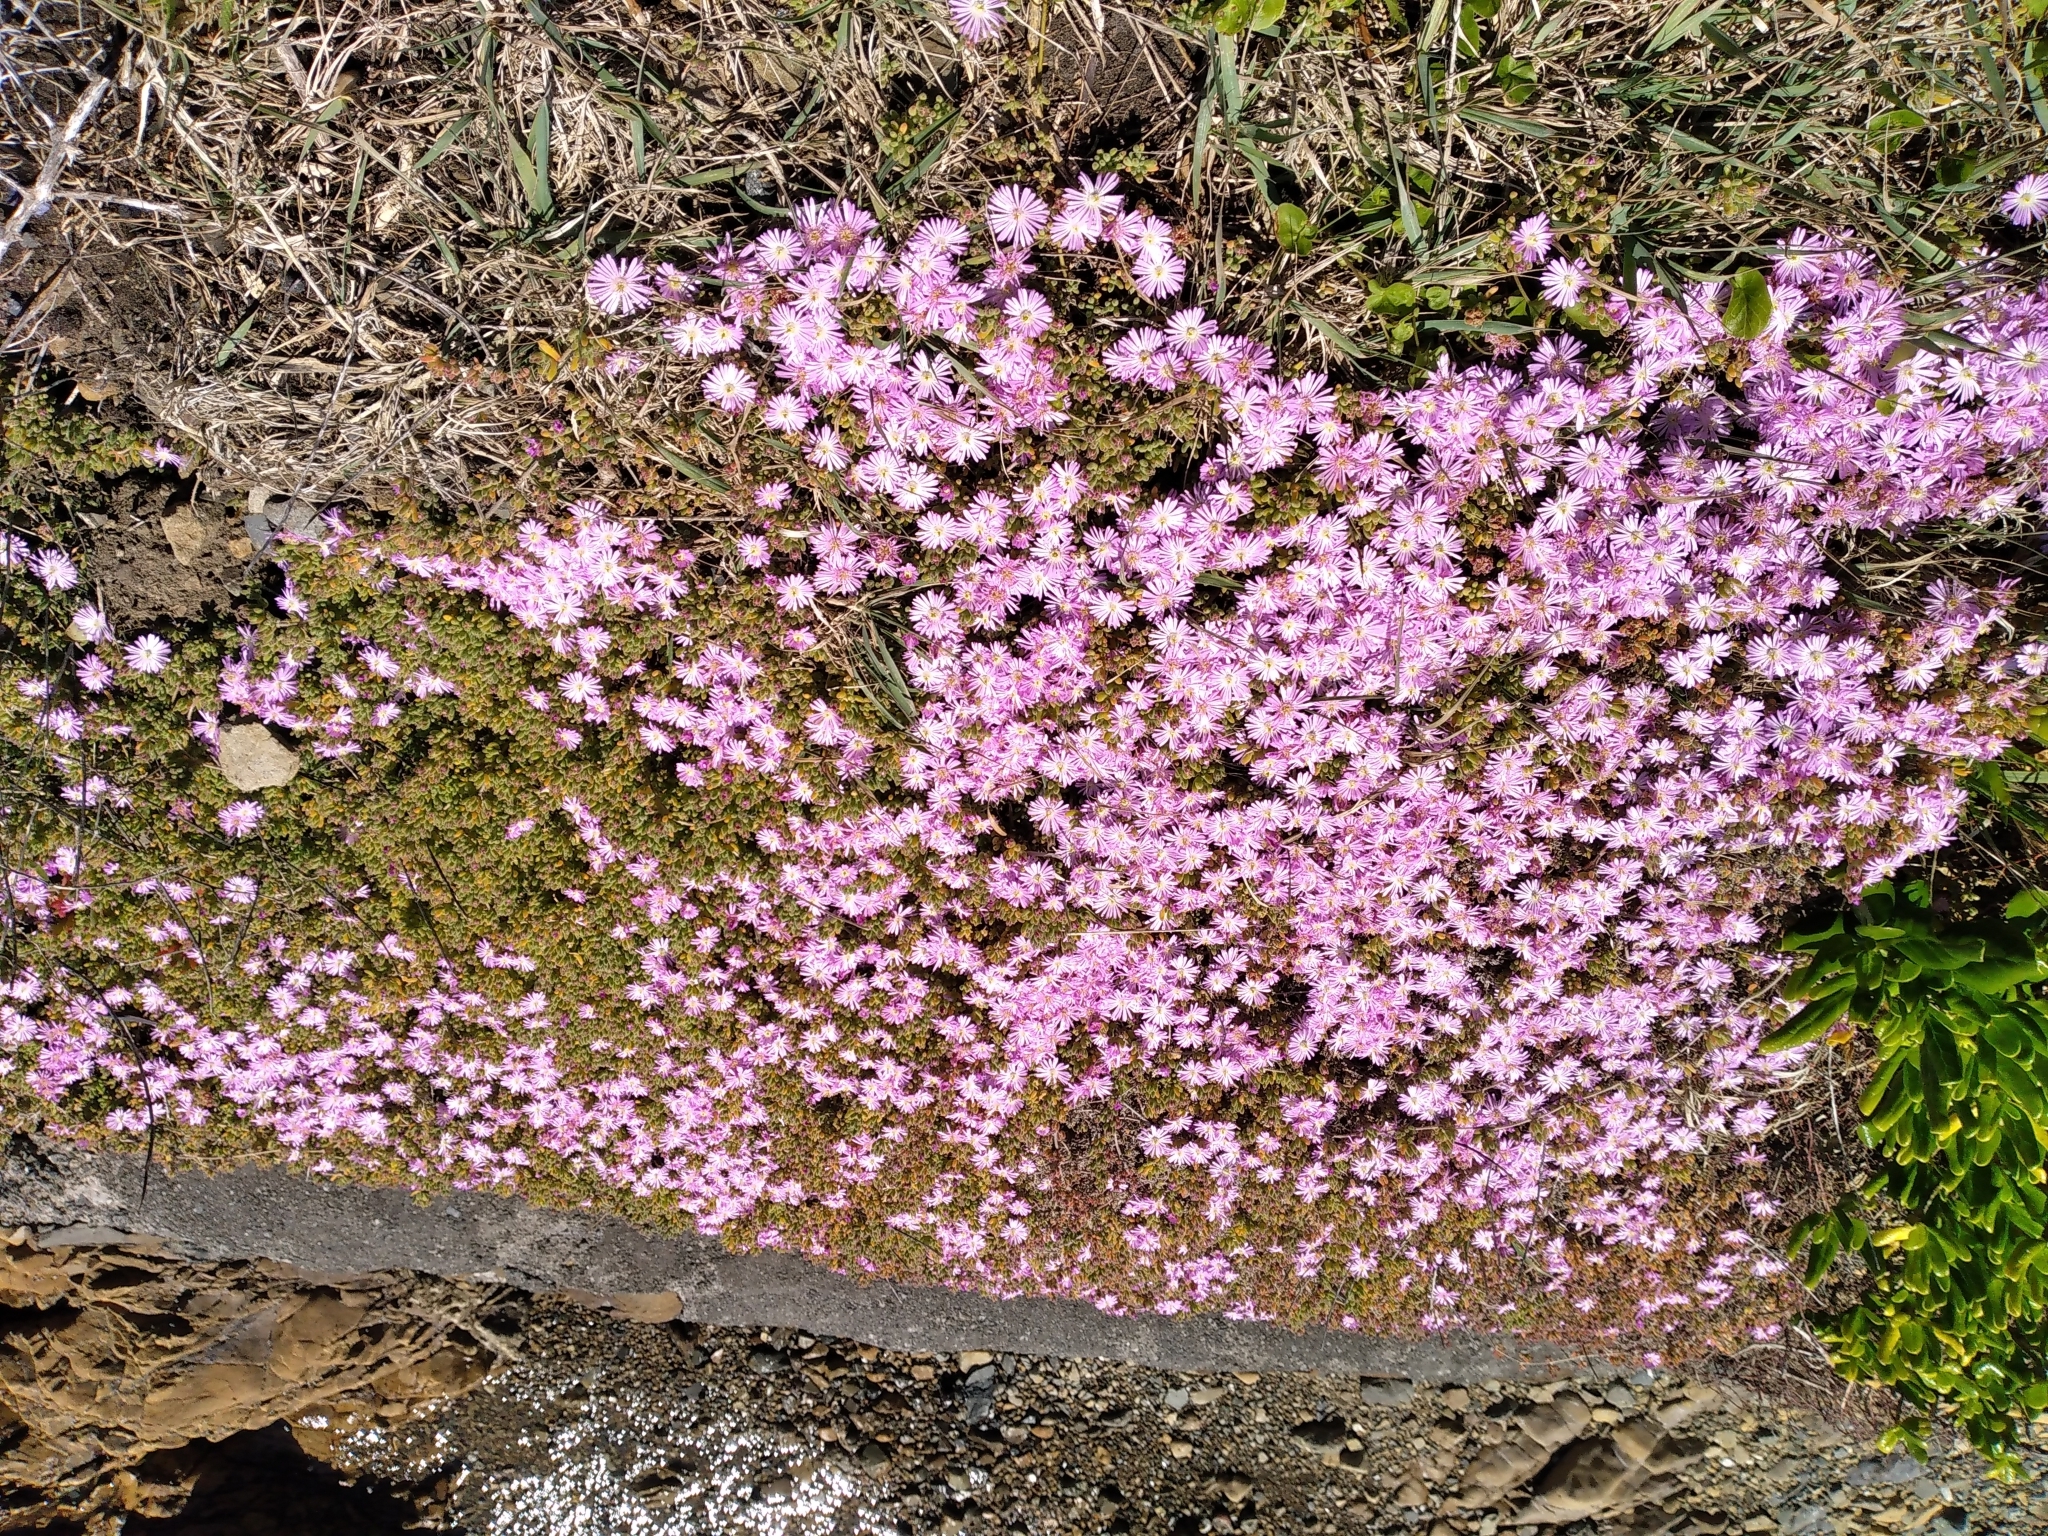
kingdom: Plantae
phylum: Tracheophyta
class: Magnoliopsida
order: Caryophyllales
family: Aizoaceae
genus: Drosanthemum
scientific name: Drosanthemum floribundum
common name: Pale dewplant
